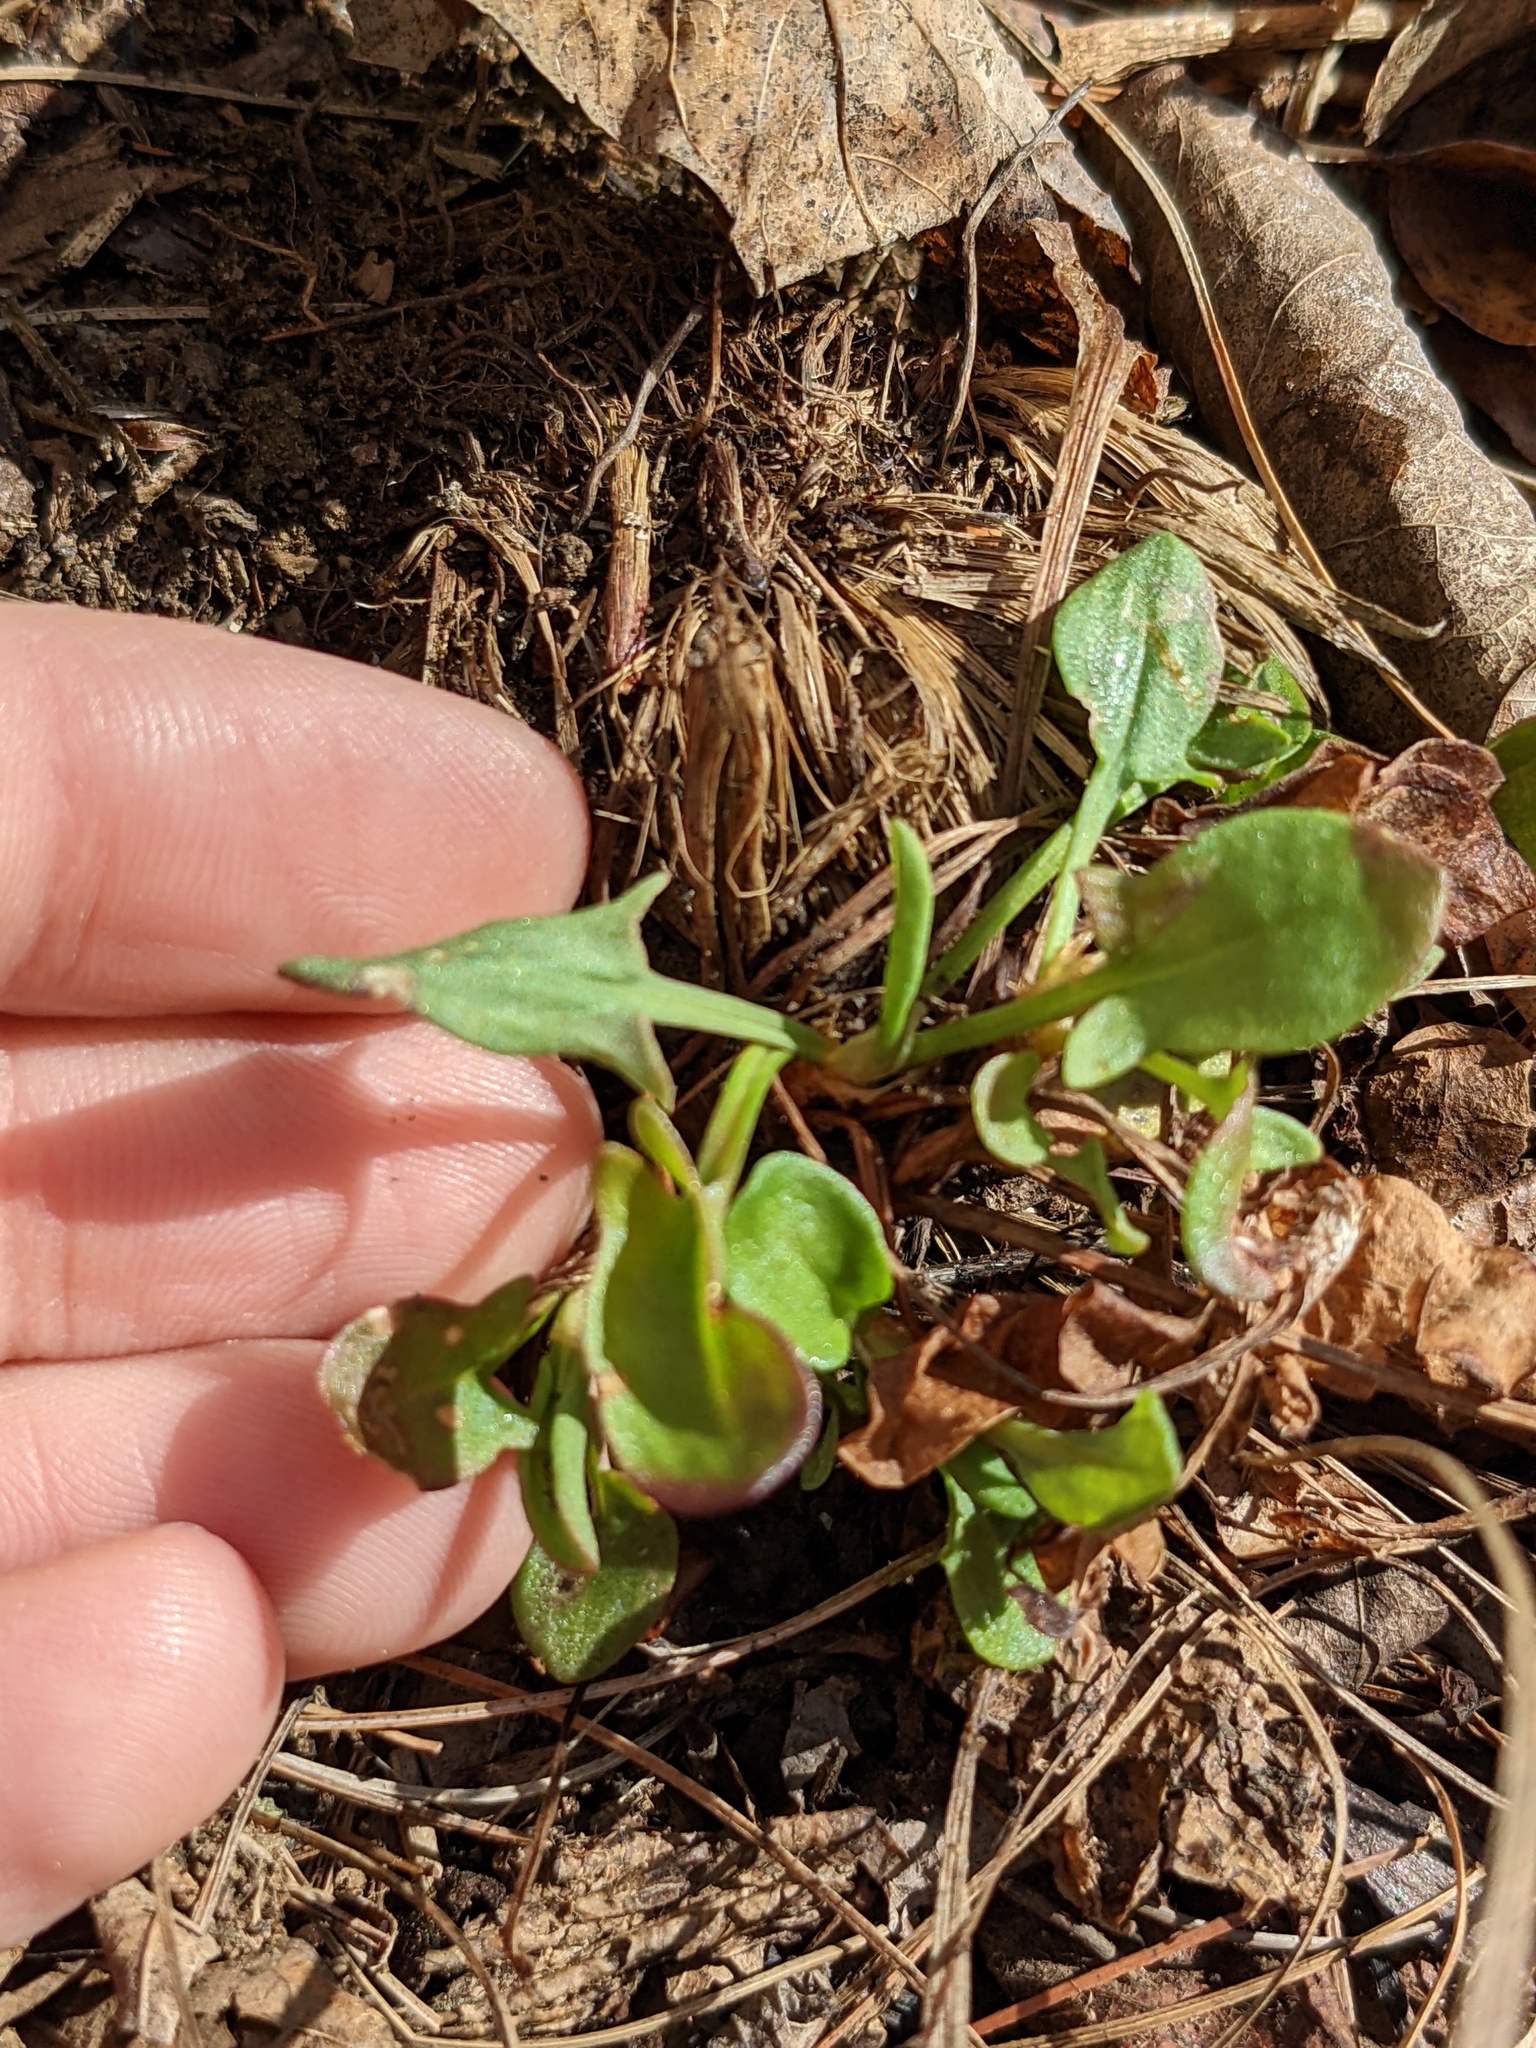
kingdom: Plantae
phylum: Tracheophyta
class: Magnoliopsida
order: Caryophyllales
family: Polygonaceae
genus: Rumex
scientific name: Rumex acetosella
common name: Common sheep sorrel
